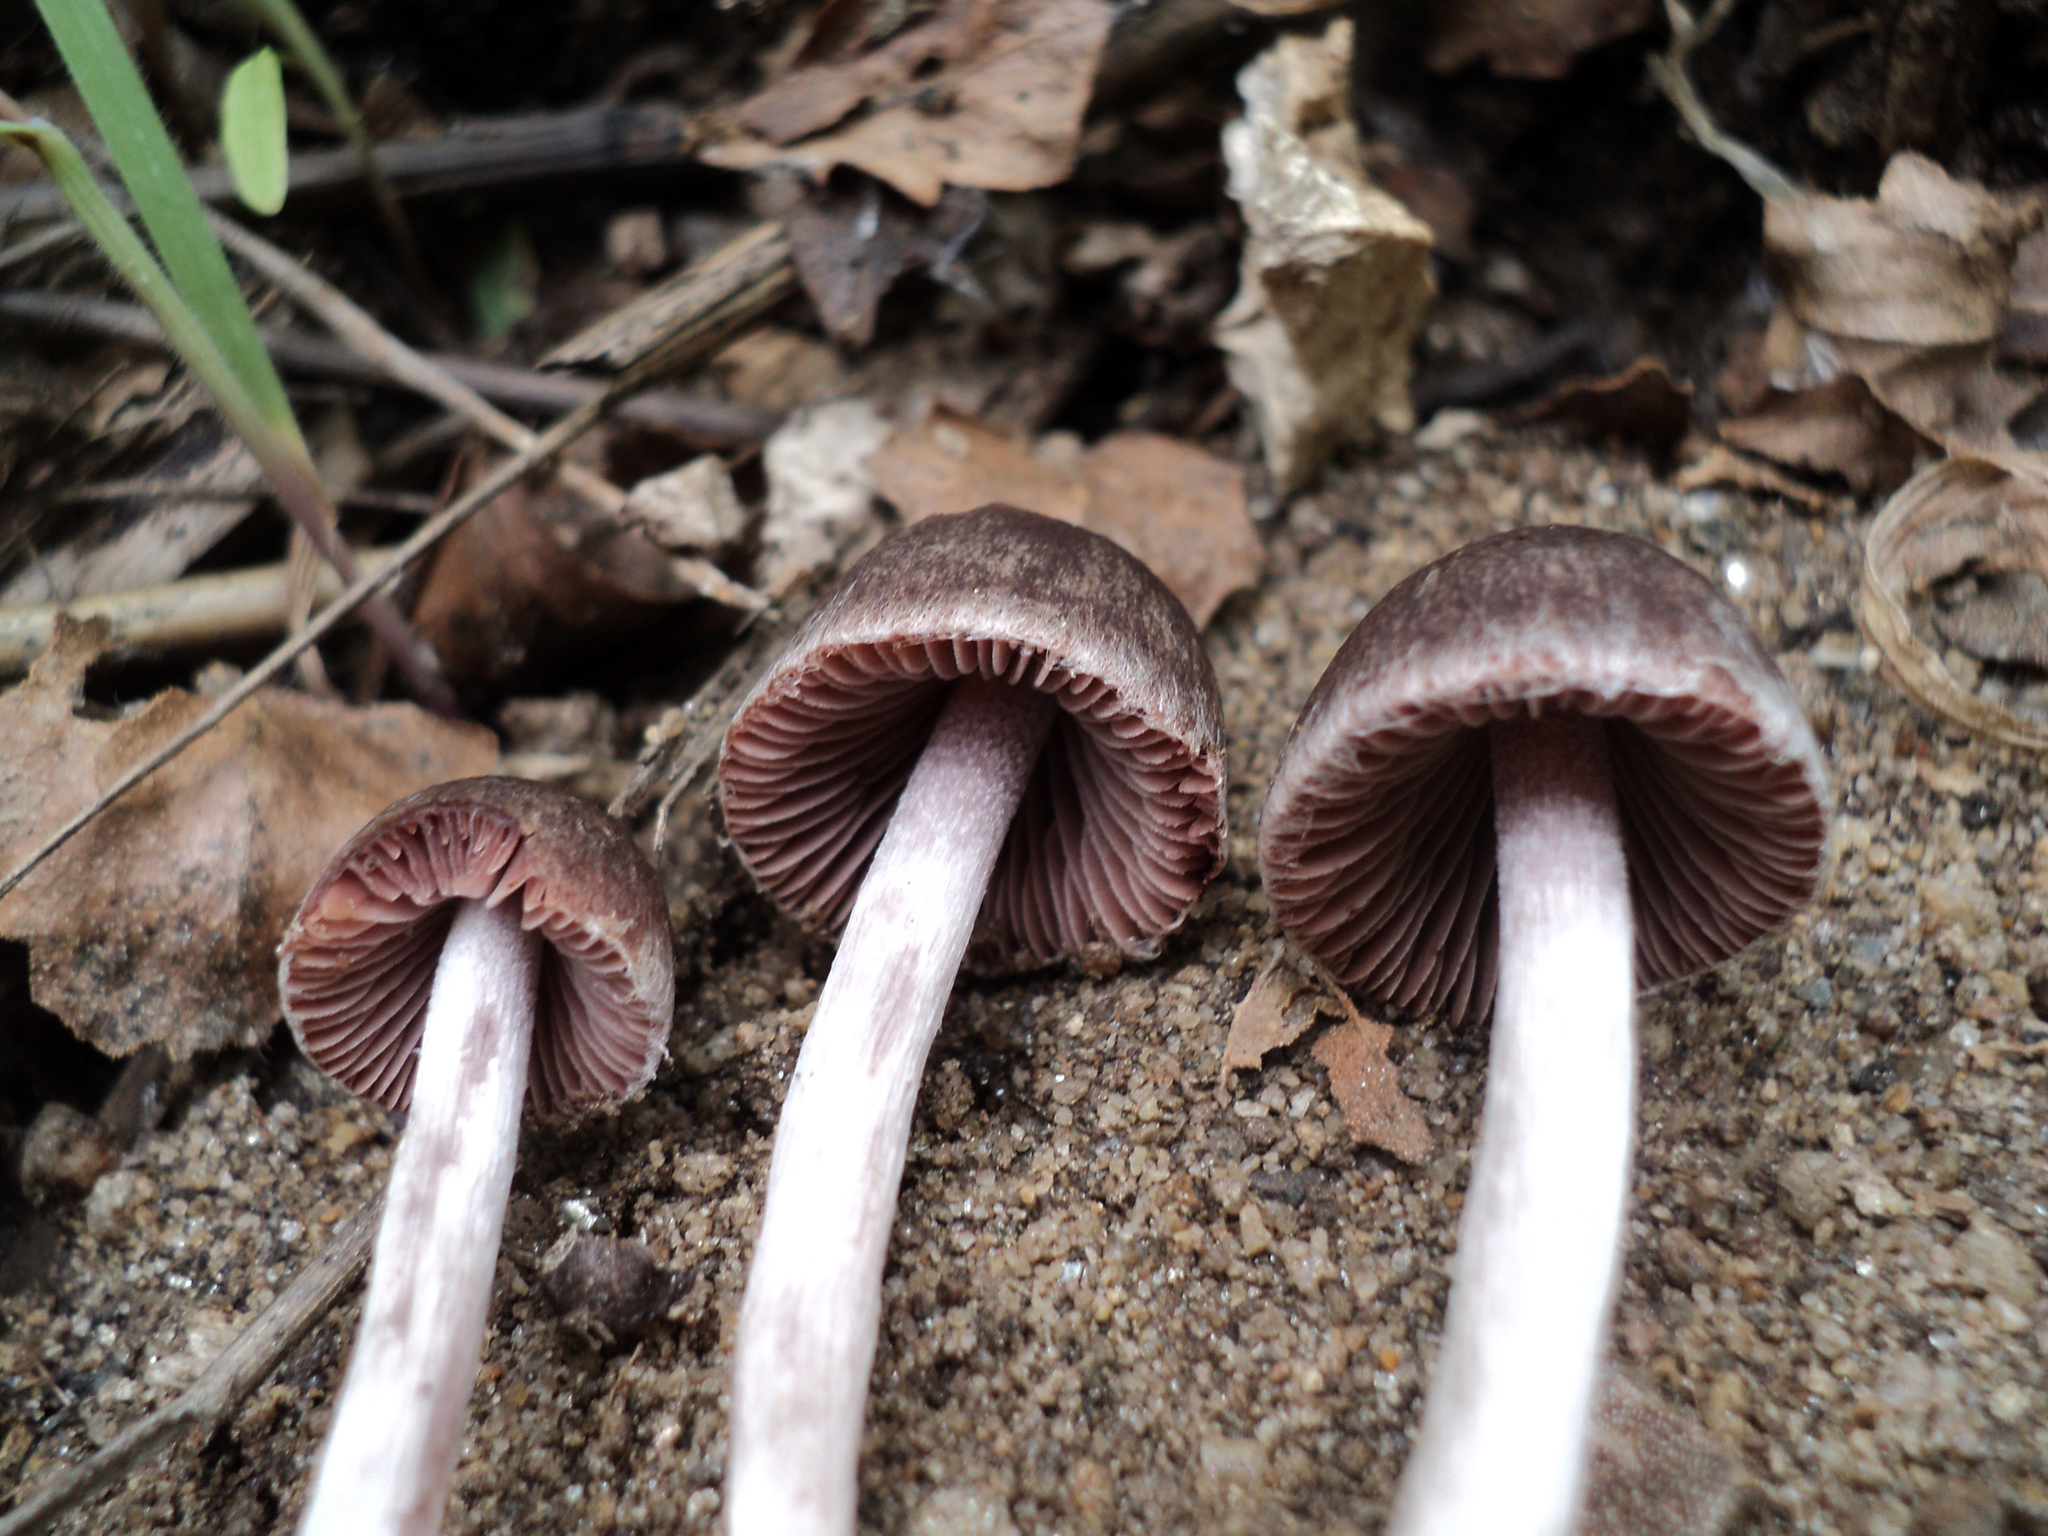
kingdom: Fungi
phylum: Basidiomycota
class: Agaricomycetes
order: Agaricales
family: Psathyrellaceae
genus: Psathyrella
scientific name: Psathyrella bipellis
